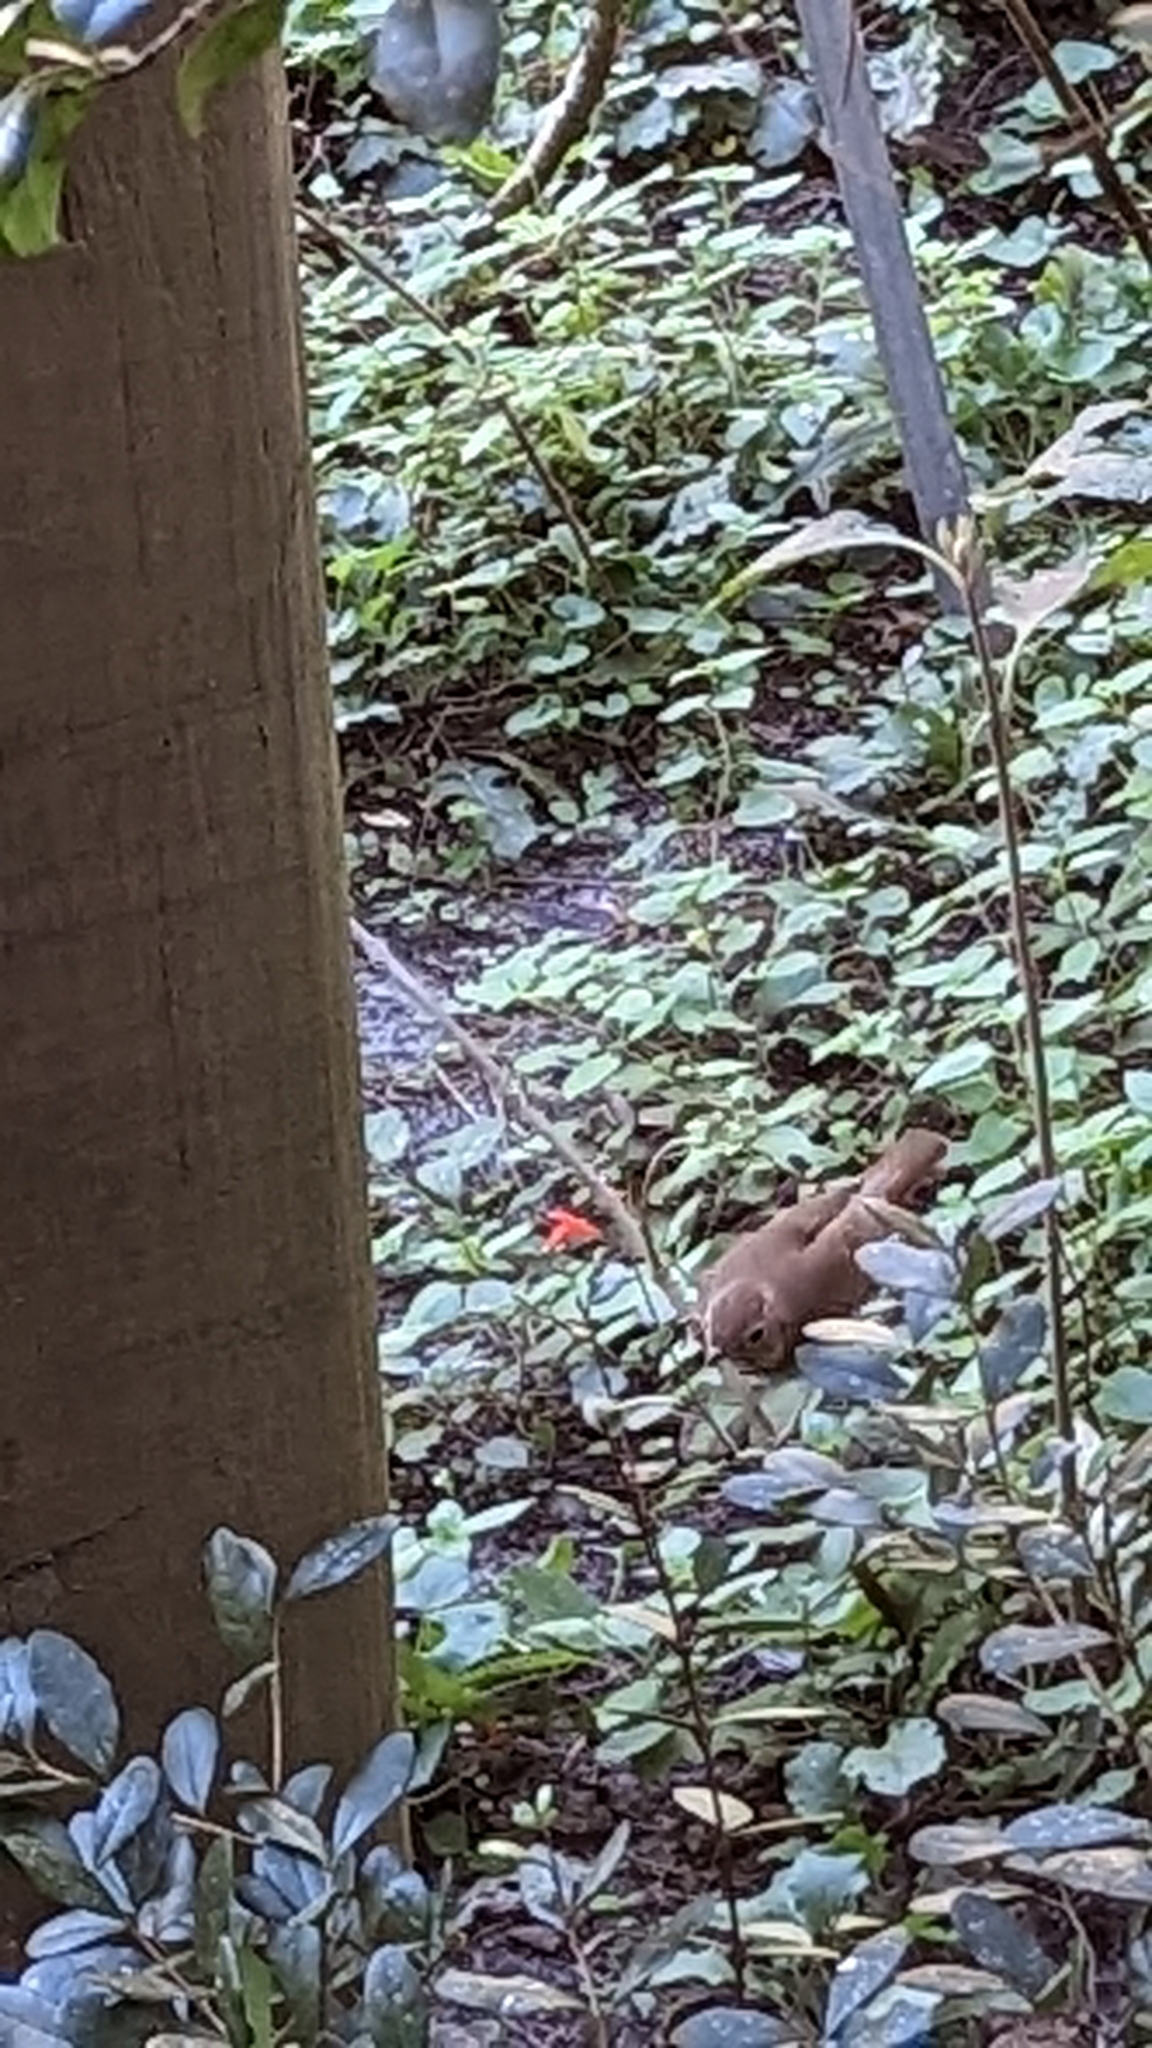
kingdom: Animalia
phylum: Chordata
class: Aves
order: Passeriformes
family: Turdidae
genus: Catharus
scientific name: Catharus guttatus
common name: Hermit thrush
